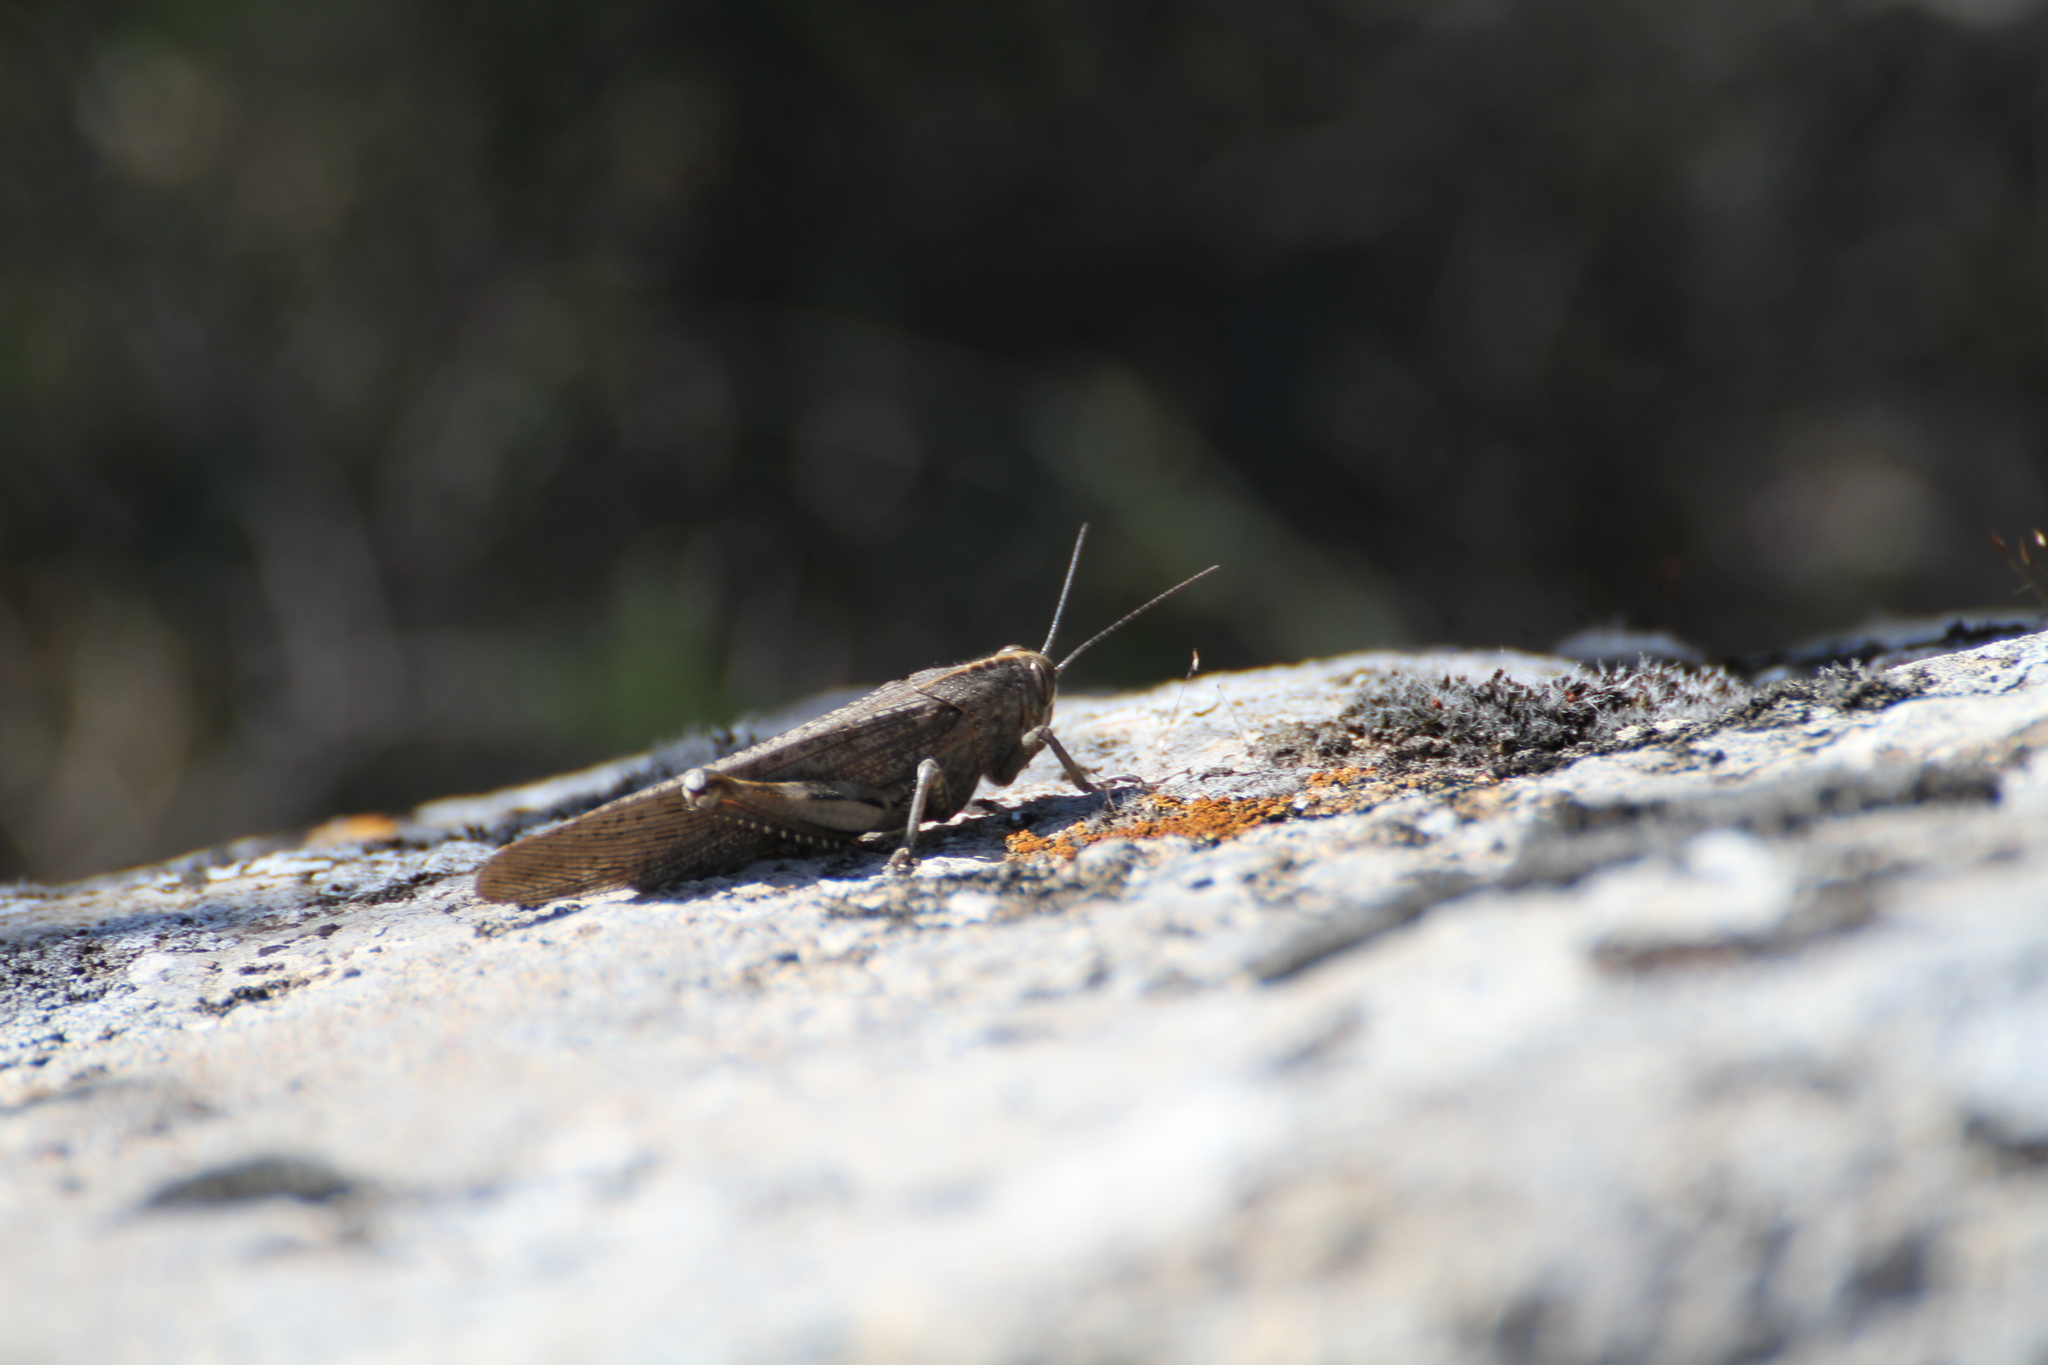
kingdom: Animalia
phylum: Arthropoda
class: Insecta
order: Orthoptera
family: Acrididae
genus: Anacridium
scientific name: Anacridium aegyptium
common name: Egyptian grasshopper
